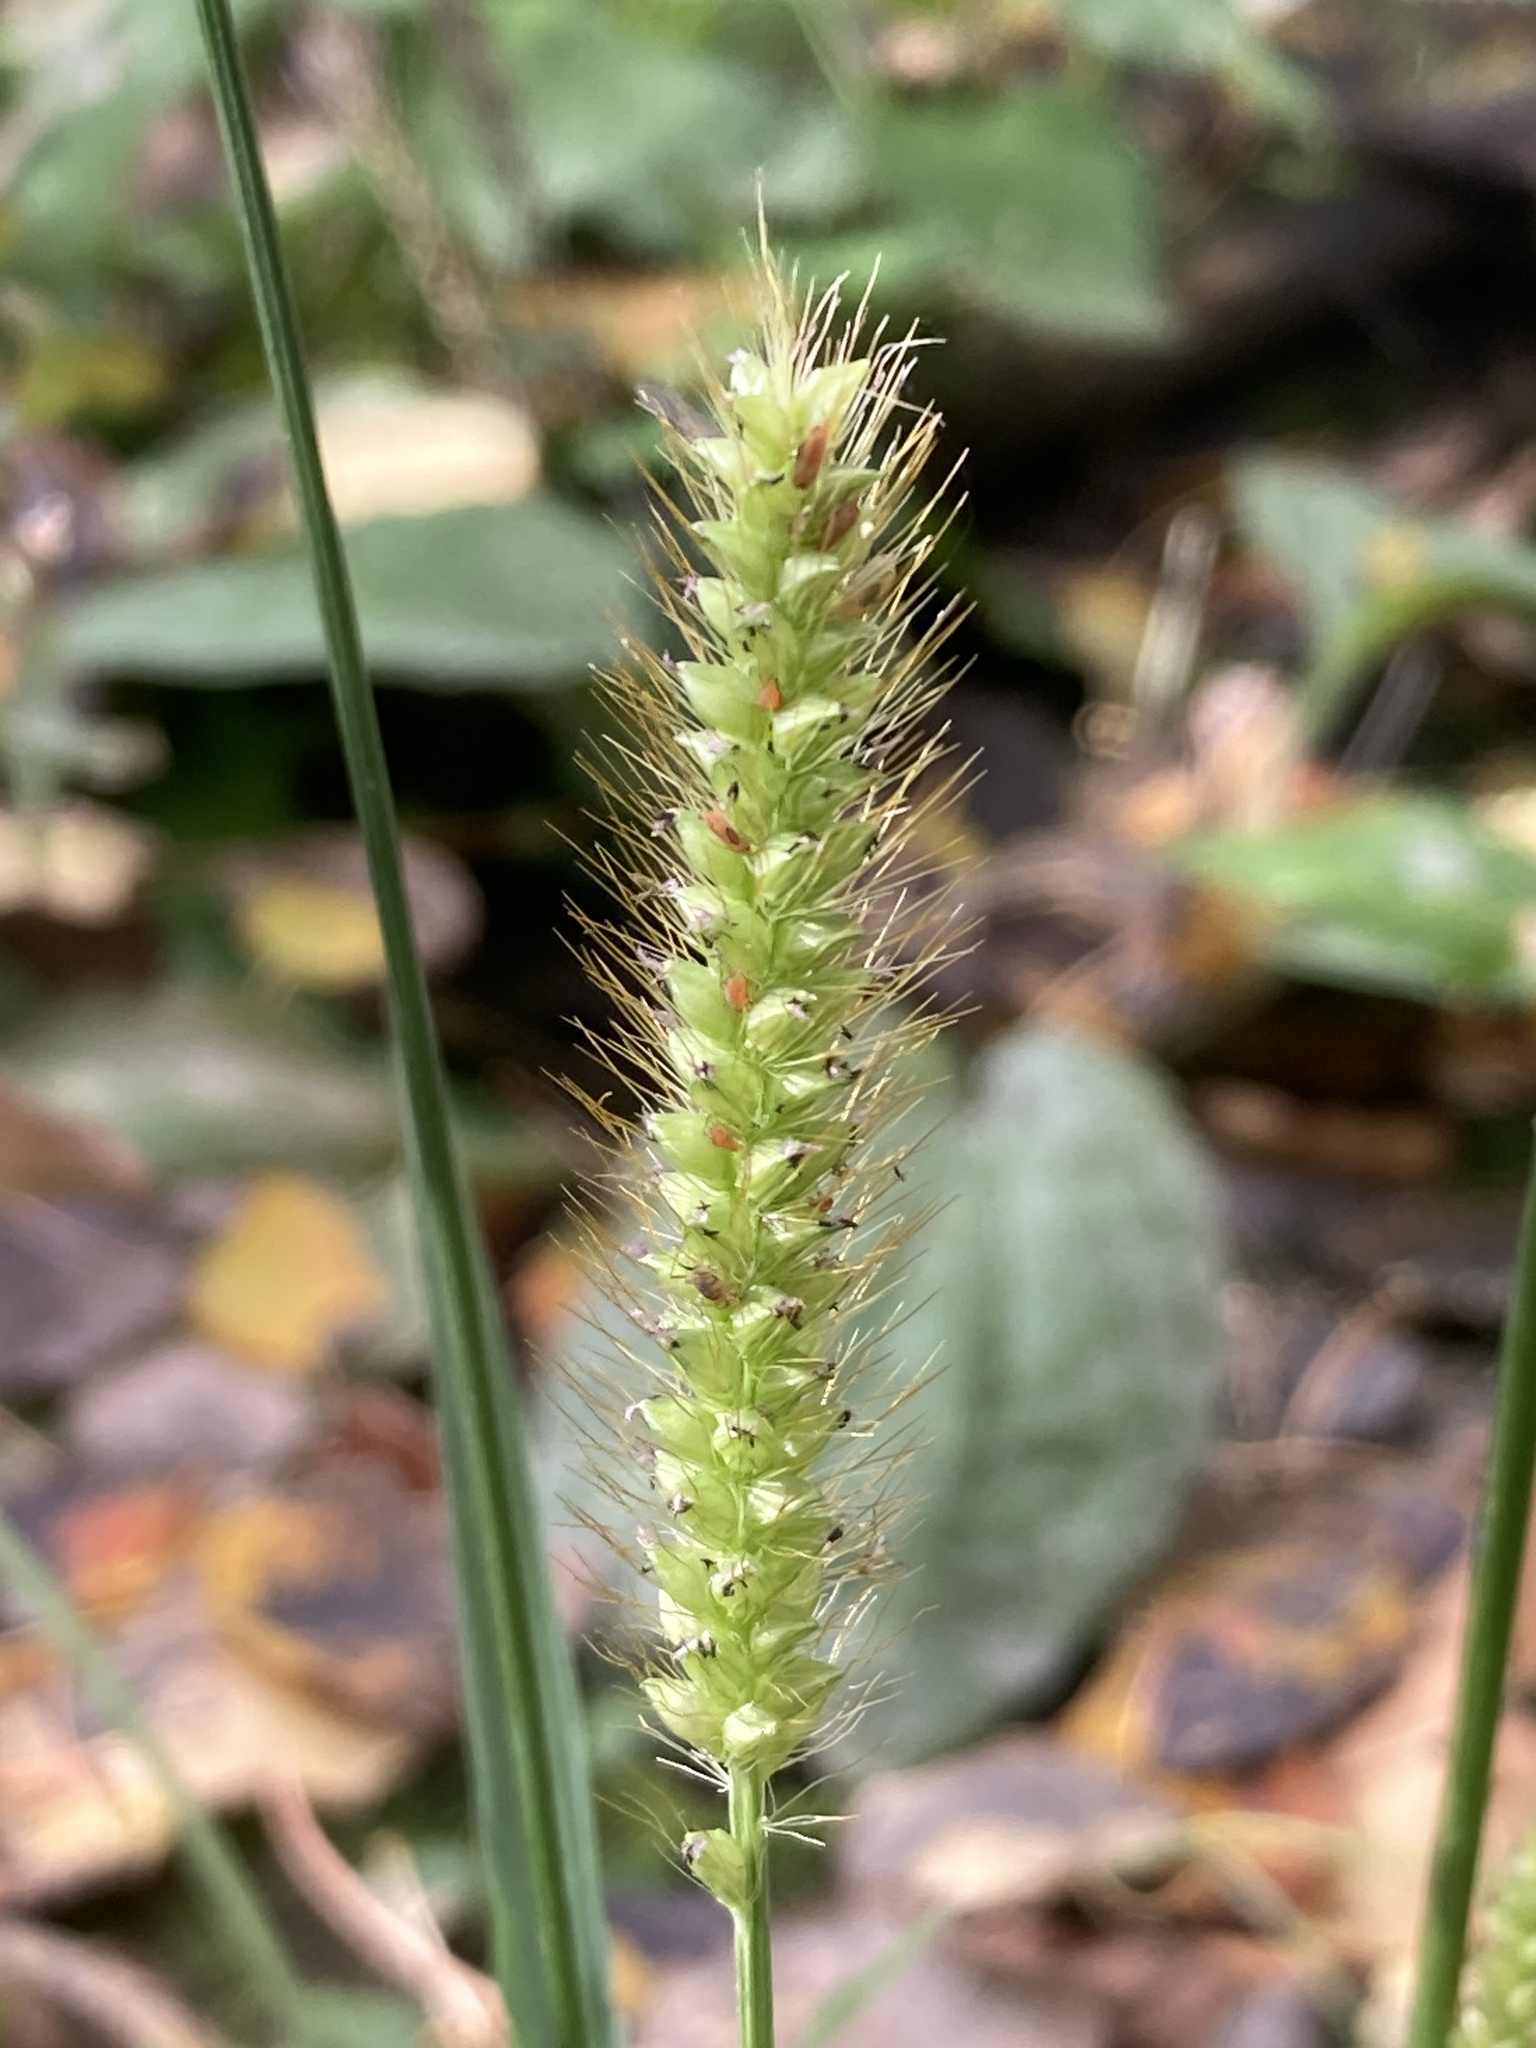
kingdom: Plantae
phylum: Tracheophyta
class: Liliopsida
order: Poales
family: Poaceae
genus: Setaria
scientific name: Setaria pumila
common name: Yellow bristle-grass
